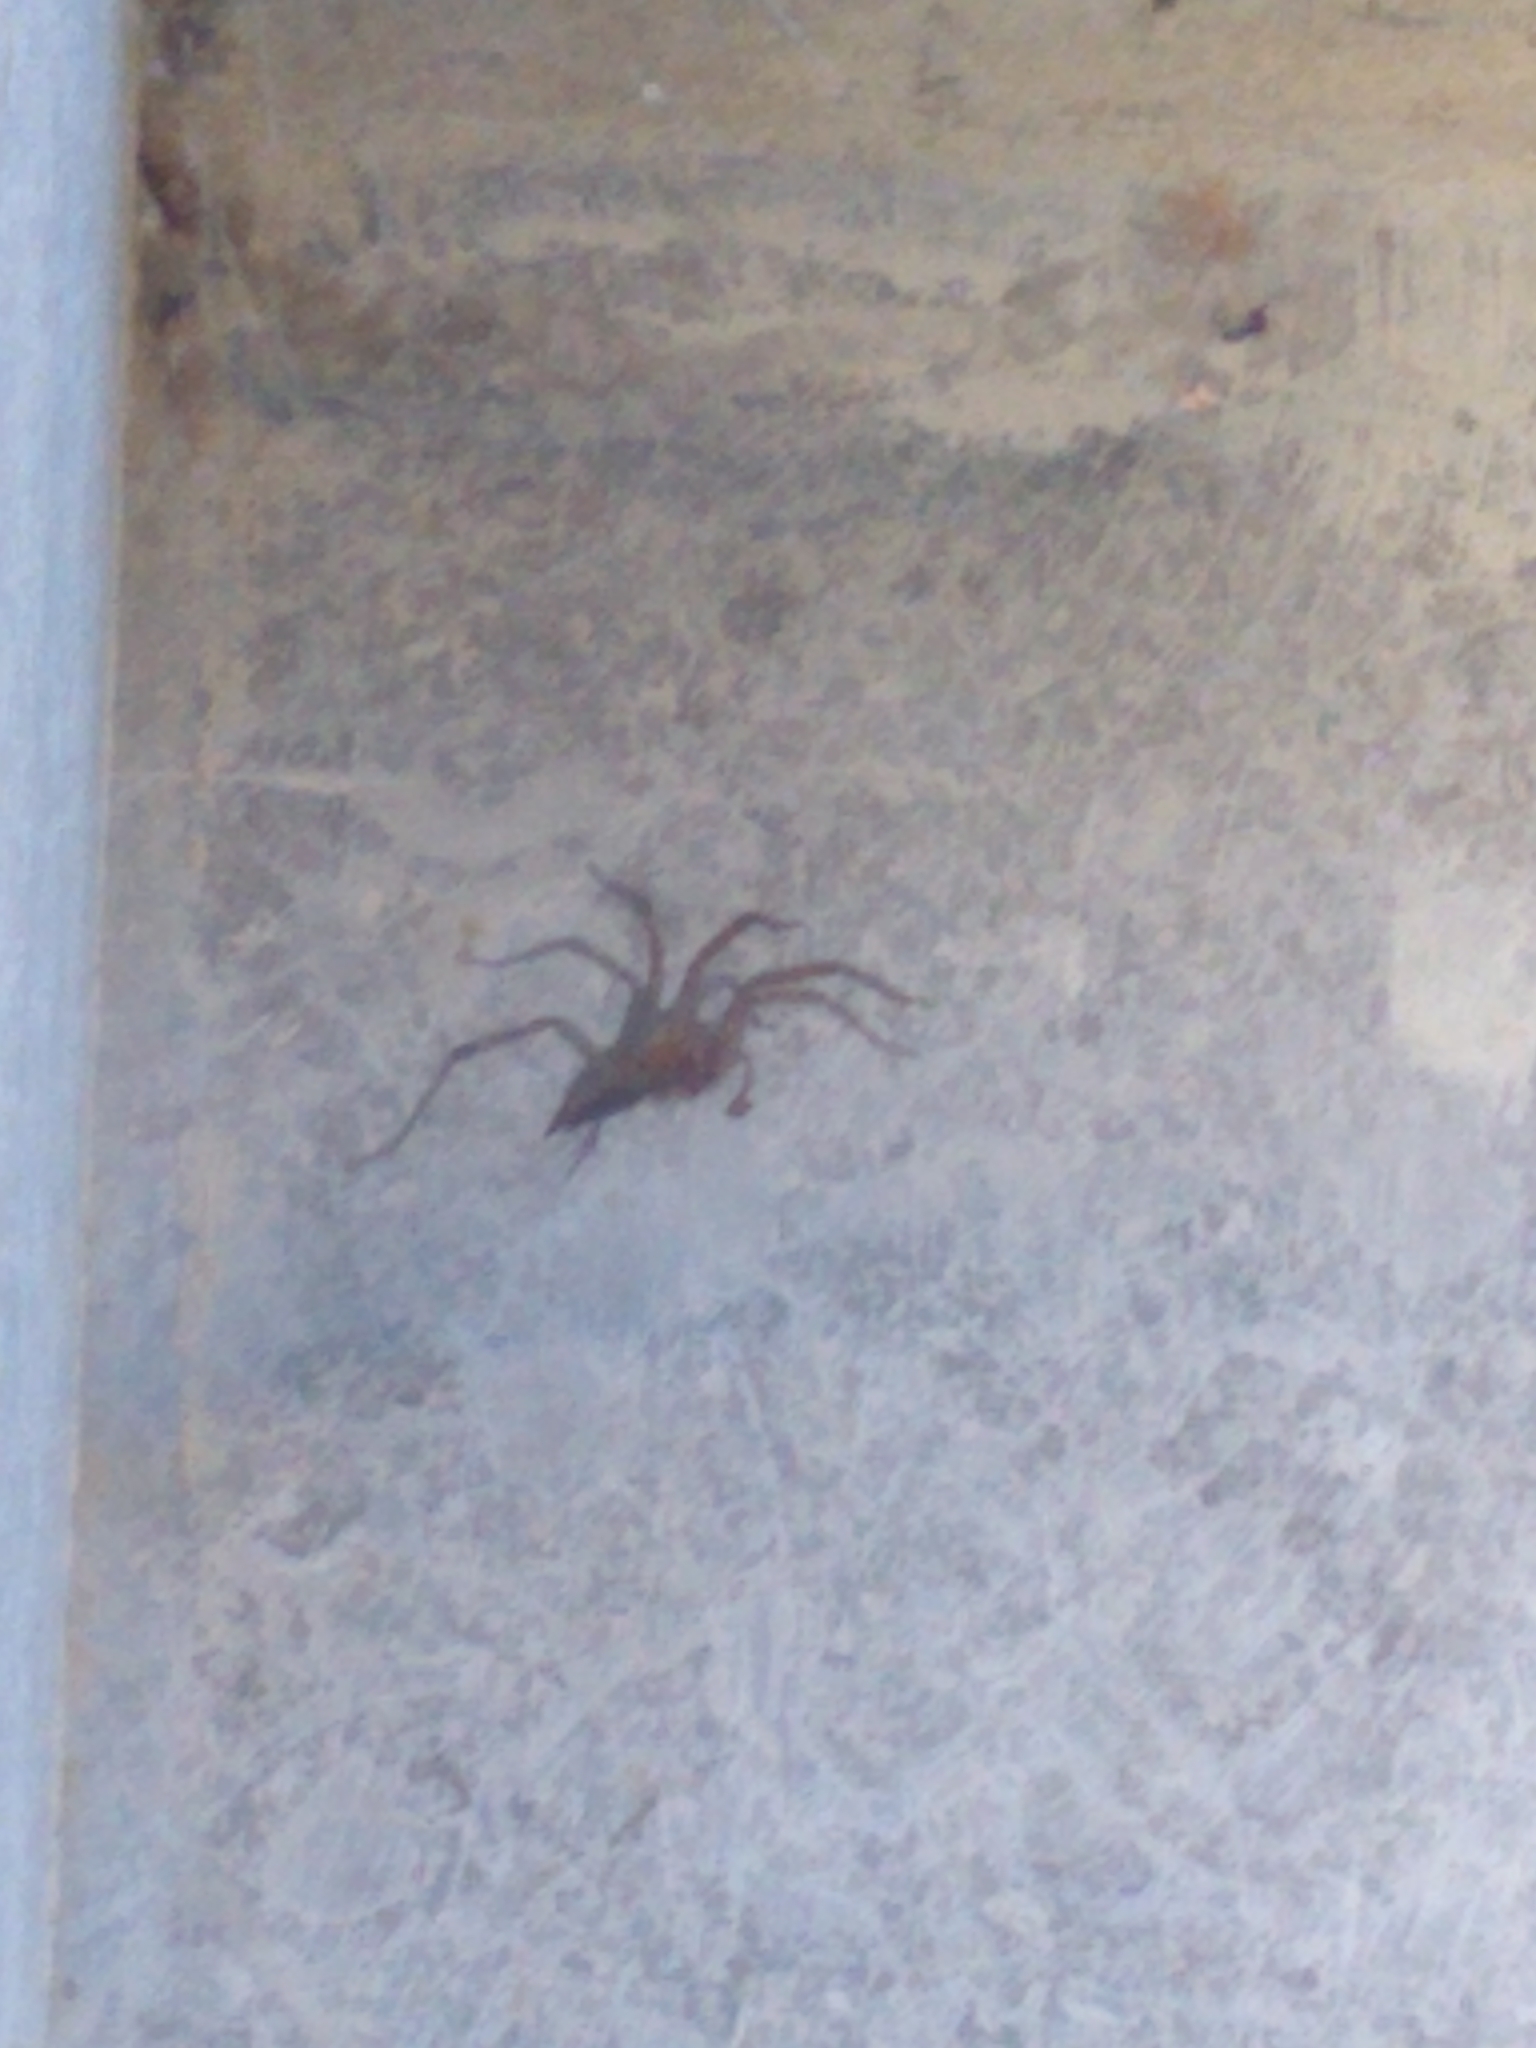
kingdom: Animalia
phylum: Arthropoda
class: Arachnida
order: Araneae
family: Agelenidae
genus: Agelenopsis
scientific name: Agelenopsis
